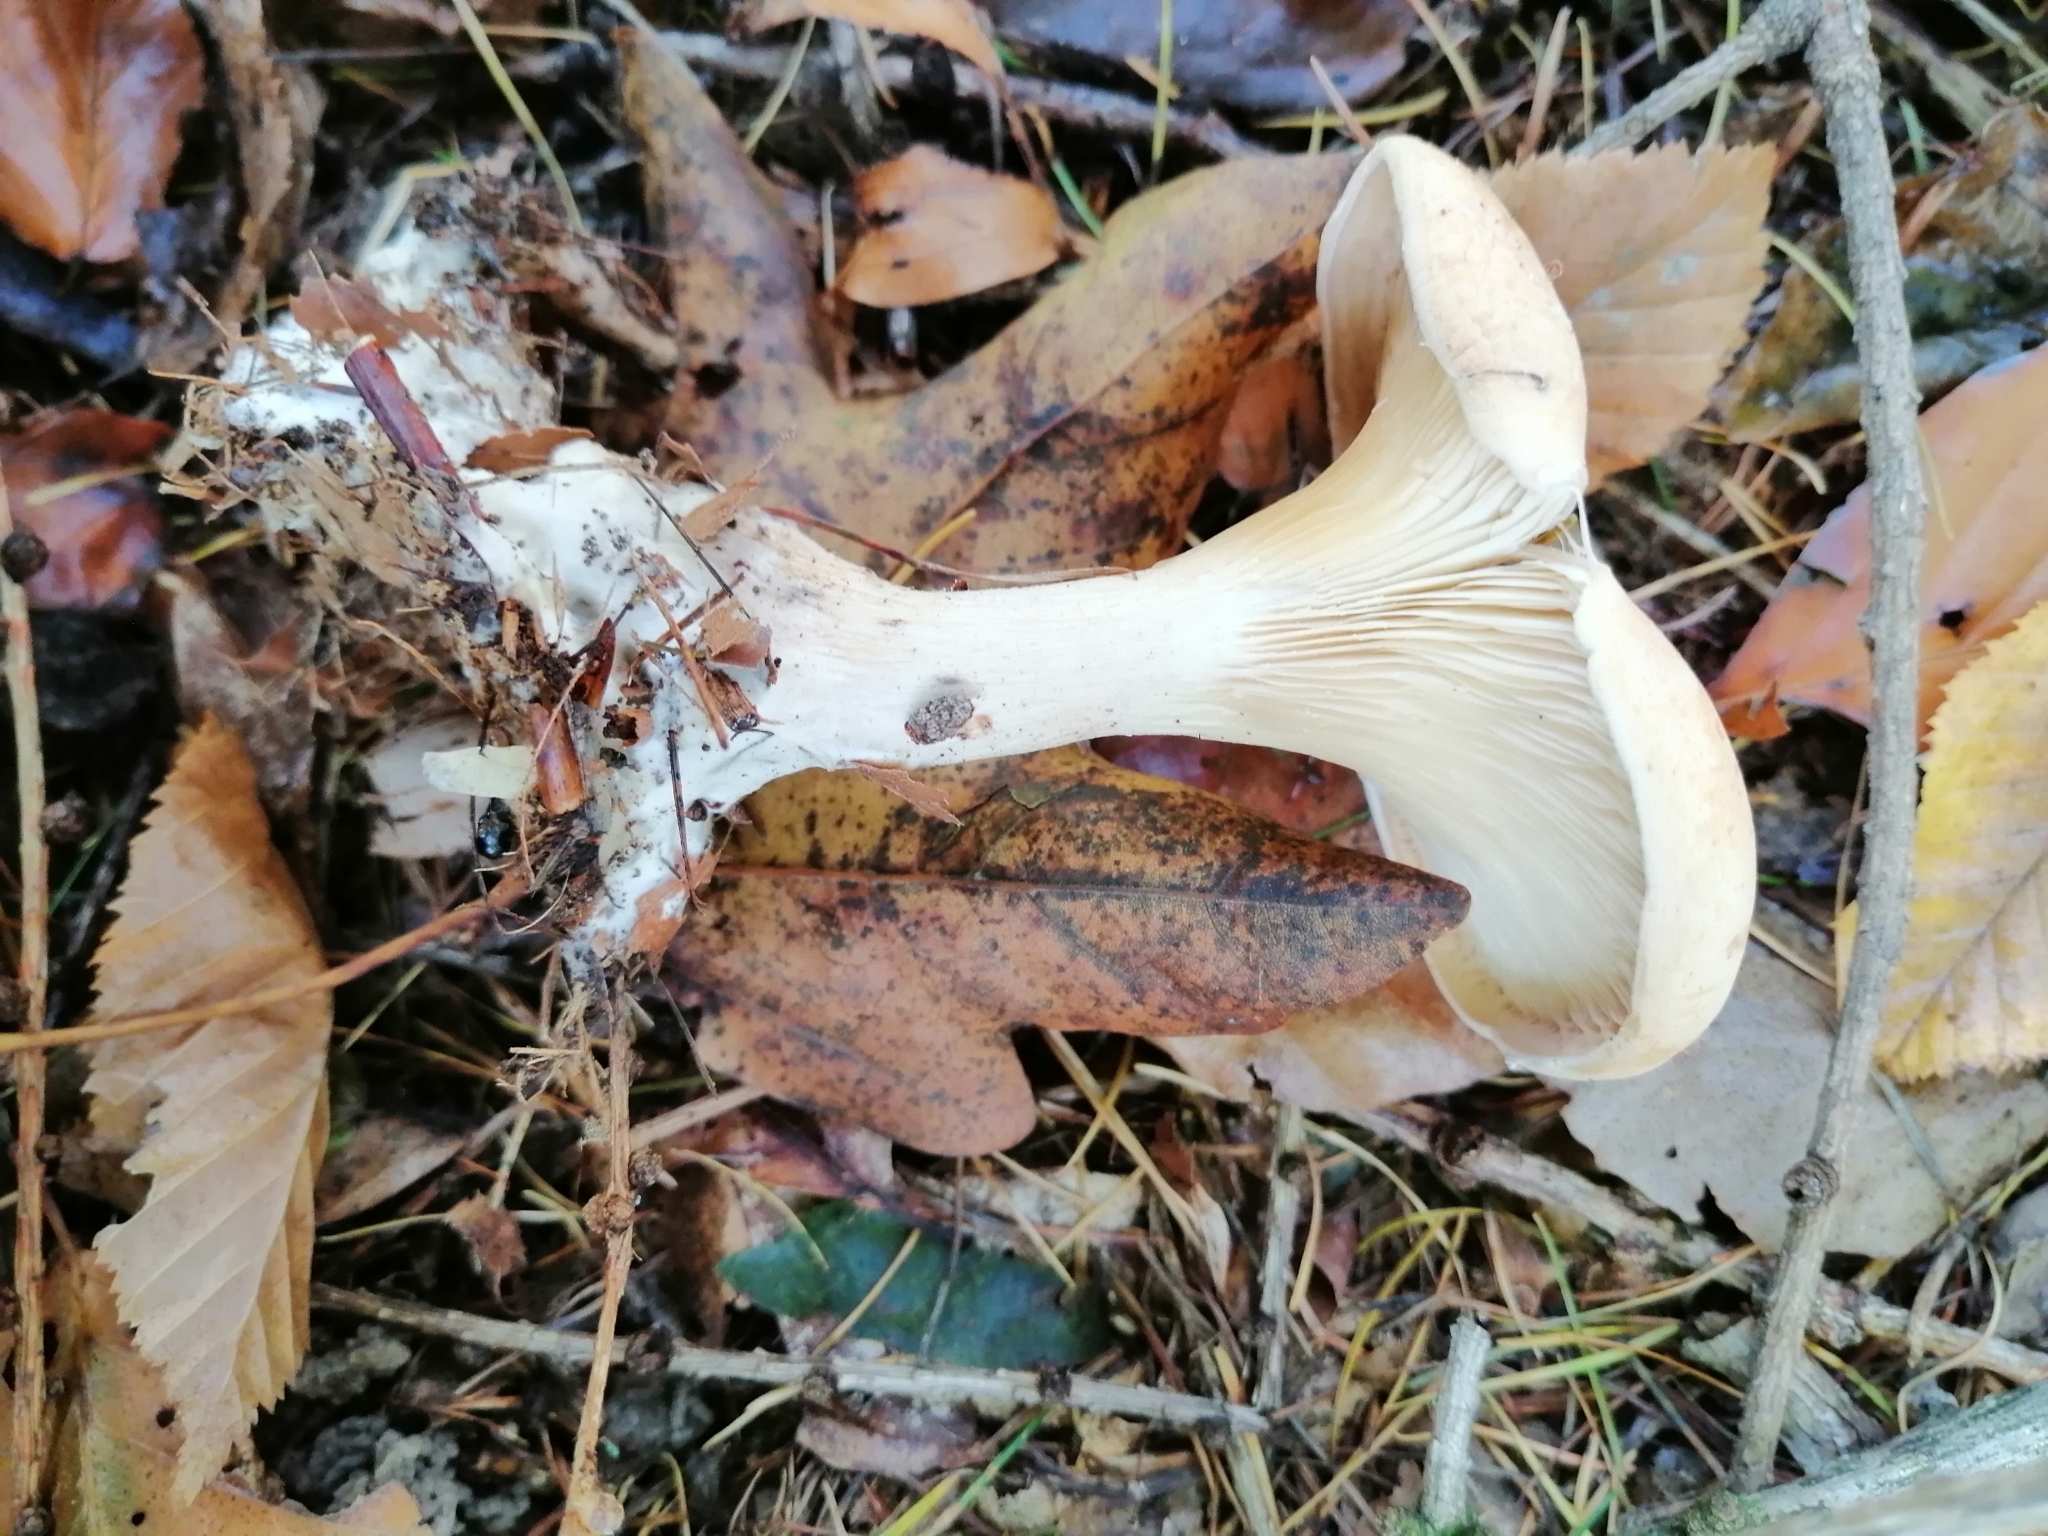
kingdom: Fungi
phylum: Basidiomycota
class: Agaricomycetes
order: Agaricales
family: Tricholomataceae
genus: Paralepista
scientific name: Paralepista flaccida
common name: Tawny funnel cap
